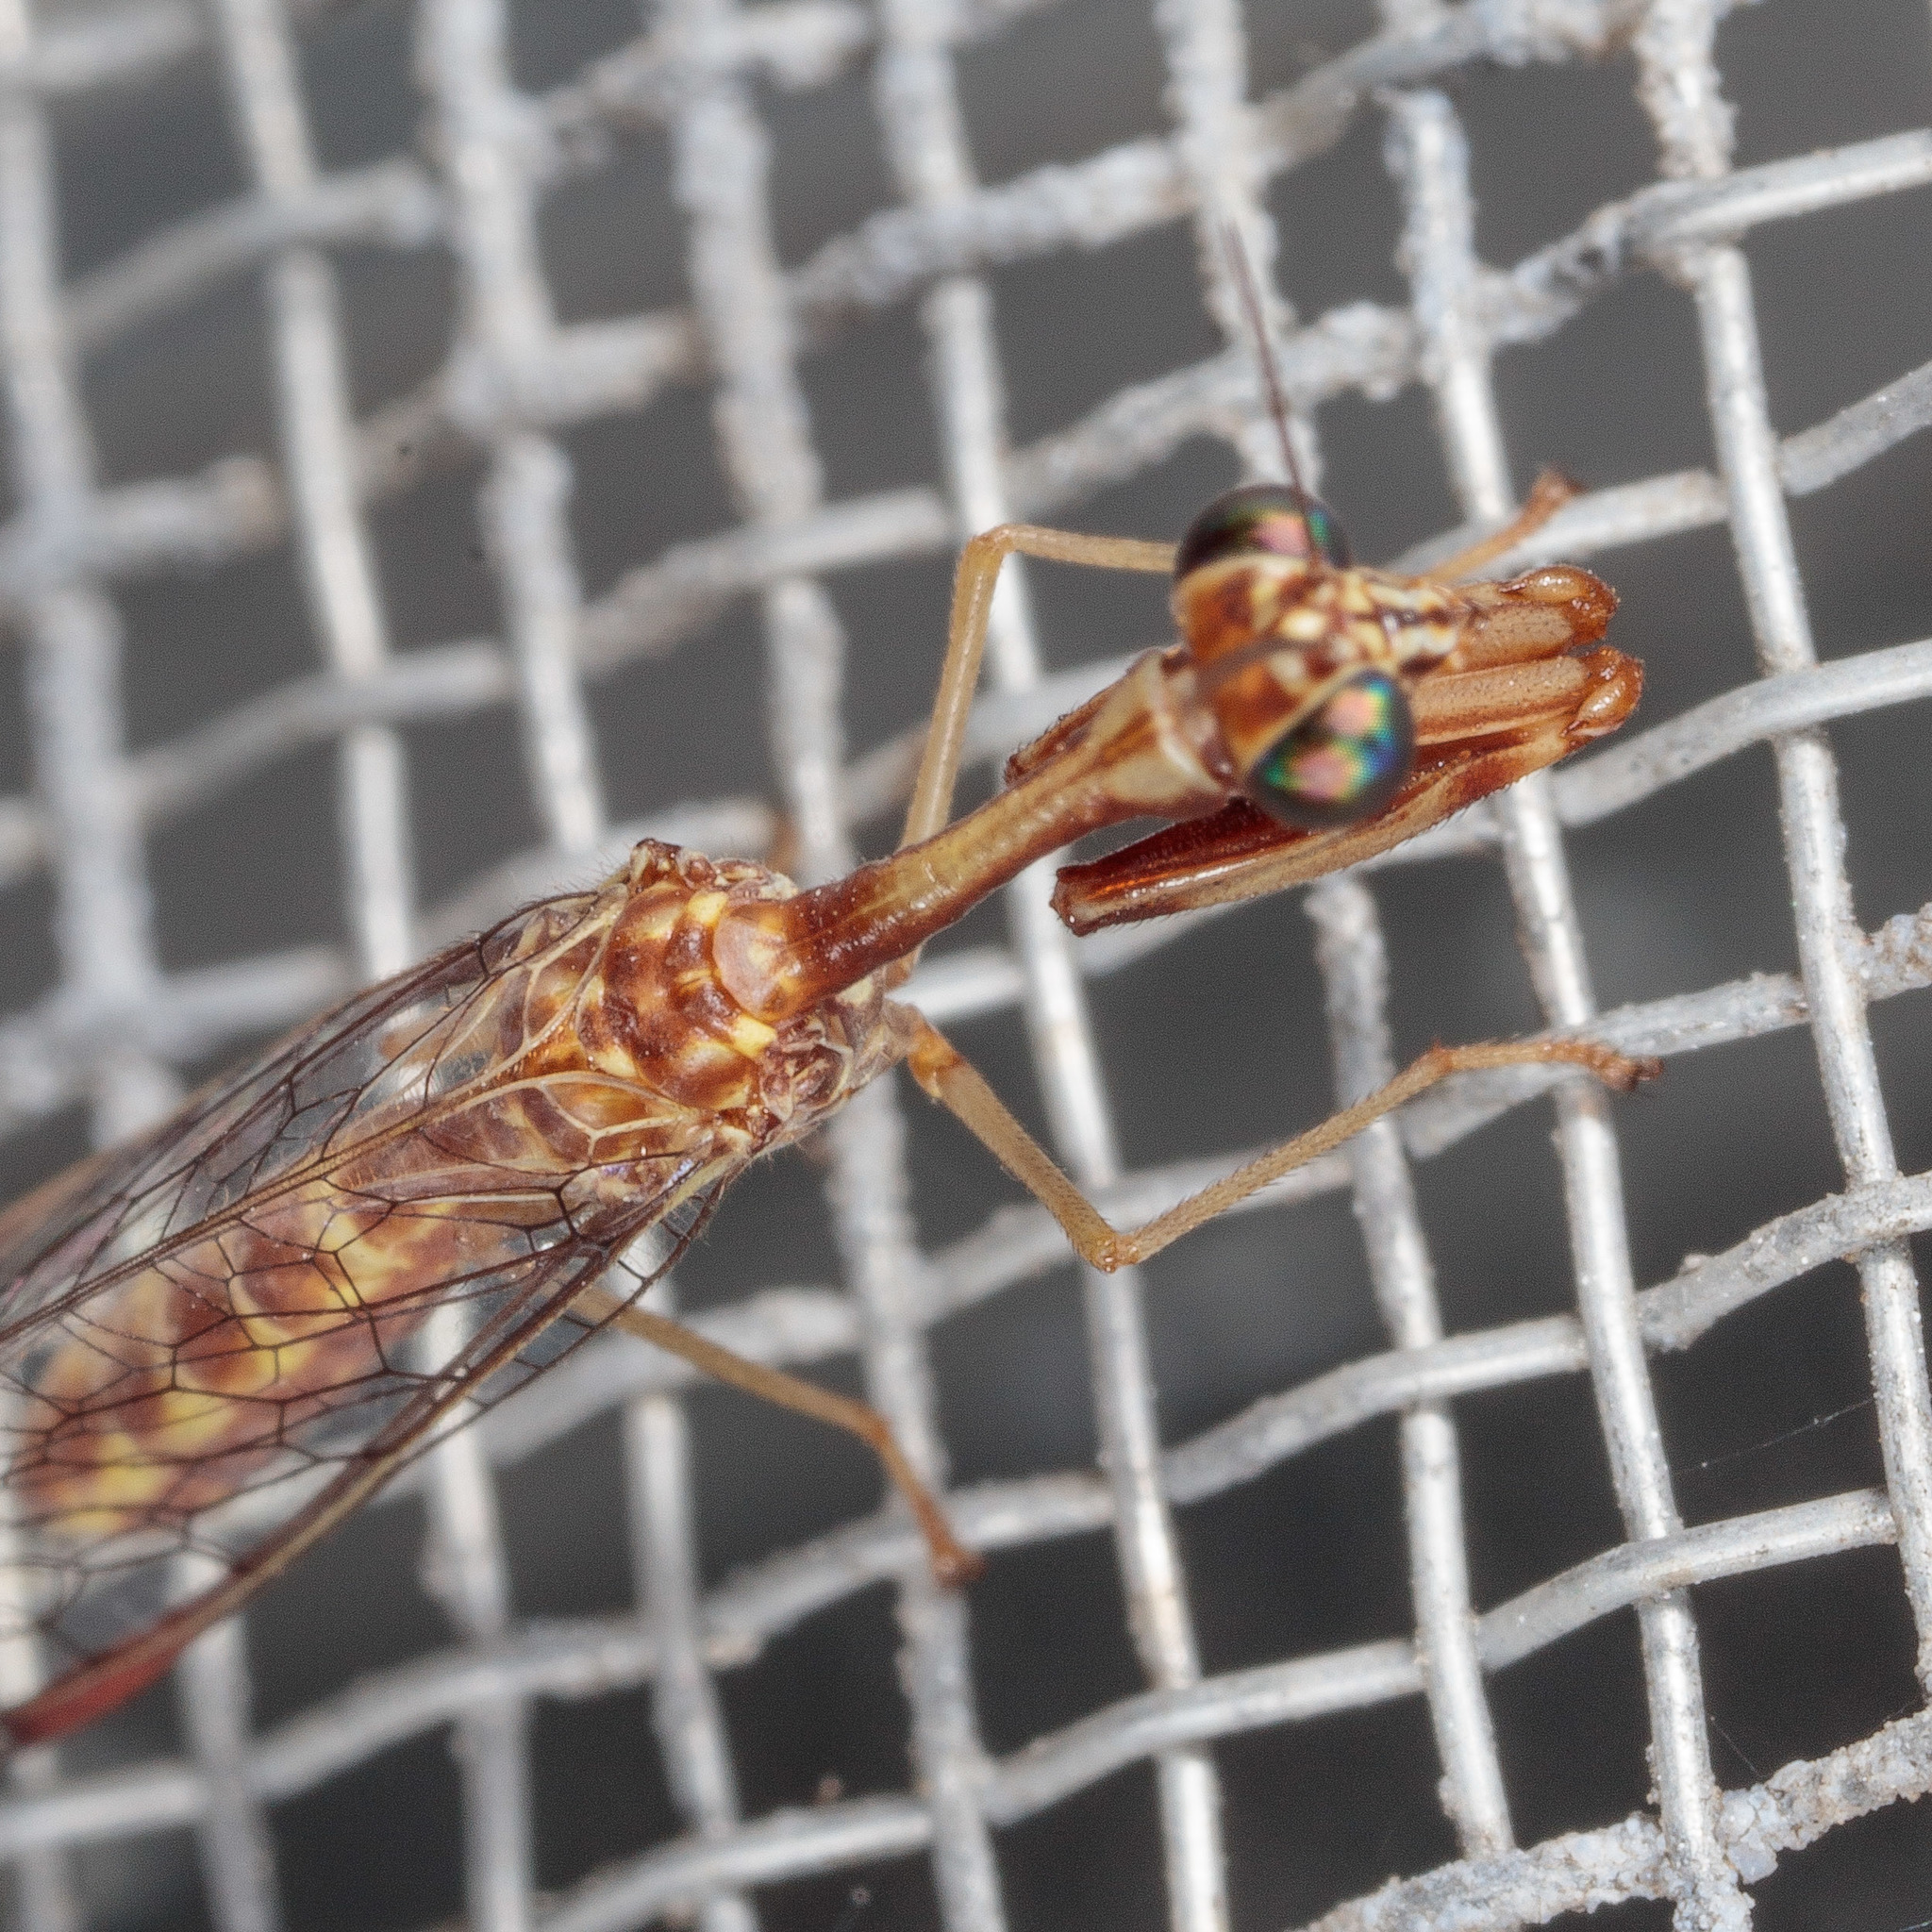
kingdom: Animalia
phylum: Arthropoda
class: Insecta
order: Neuroptera
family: Mantispidae
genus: Leptomantispa
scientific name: Leptomantispa pulchella
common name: Stevens's mantidfly
